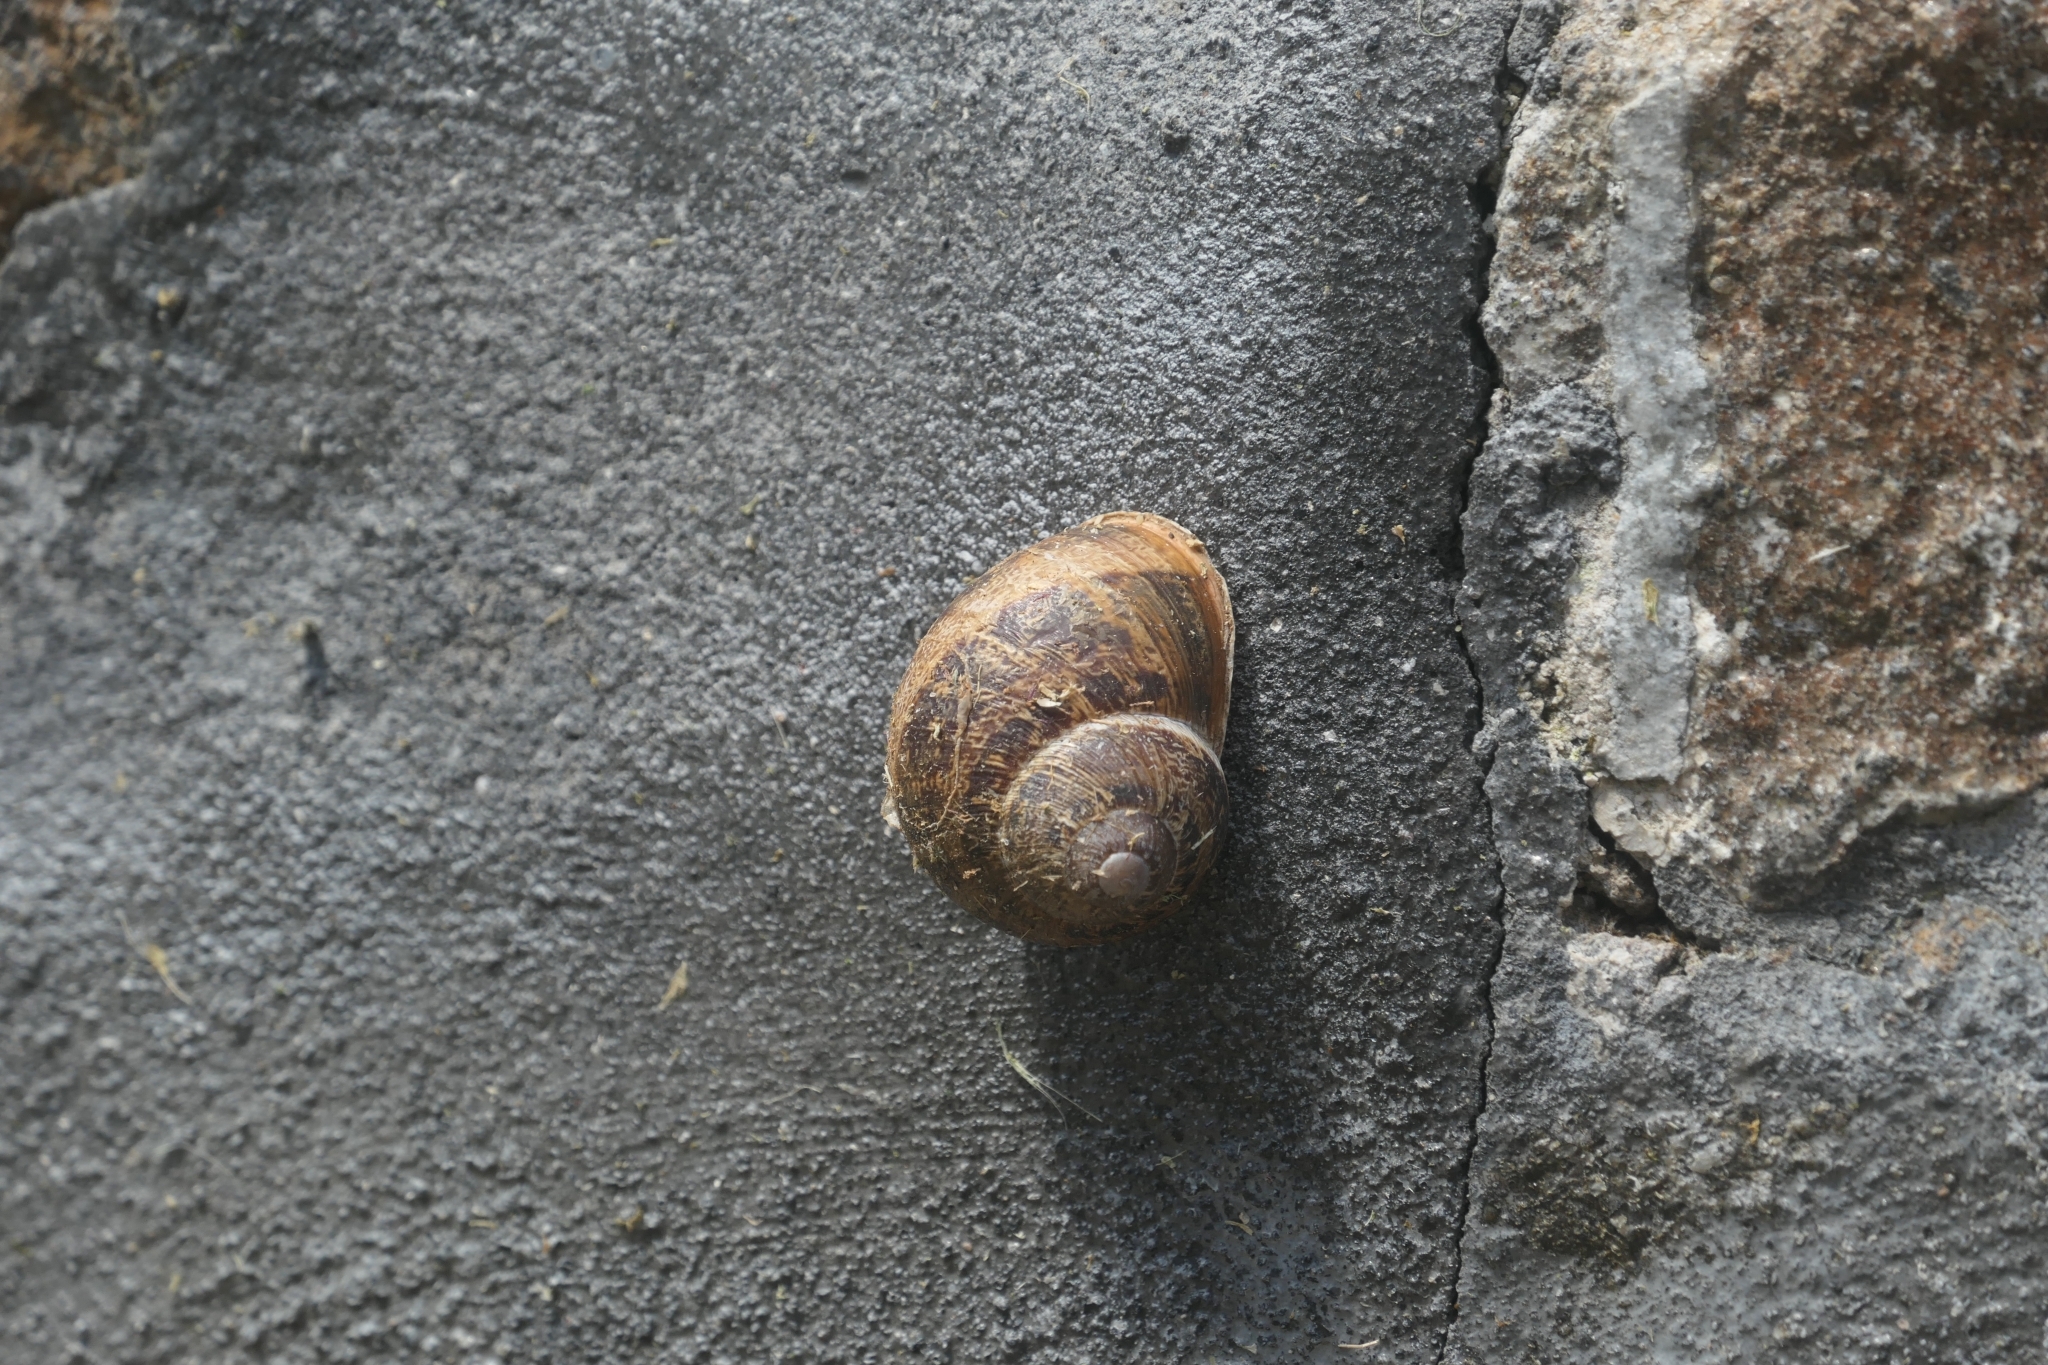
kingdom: Animalia
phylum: Mollusca
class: Gastropoda
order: Stylommatophora
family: Helicidae
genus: Cornu
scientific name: Cornu aspersum
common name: Brown garden snail
